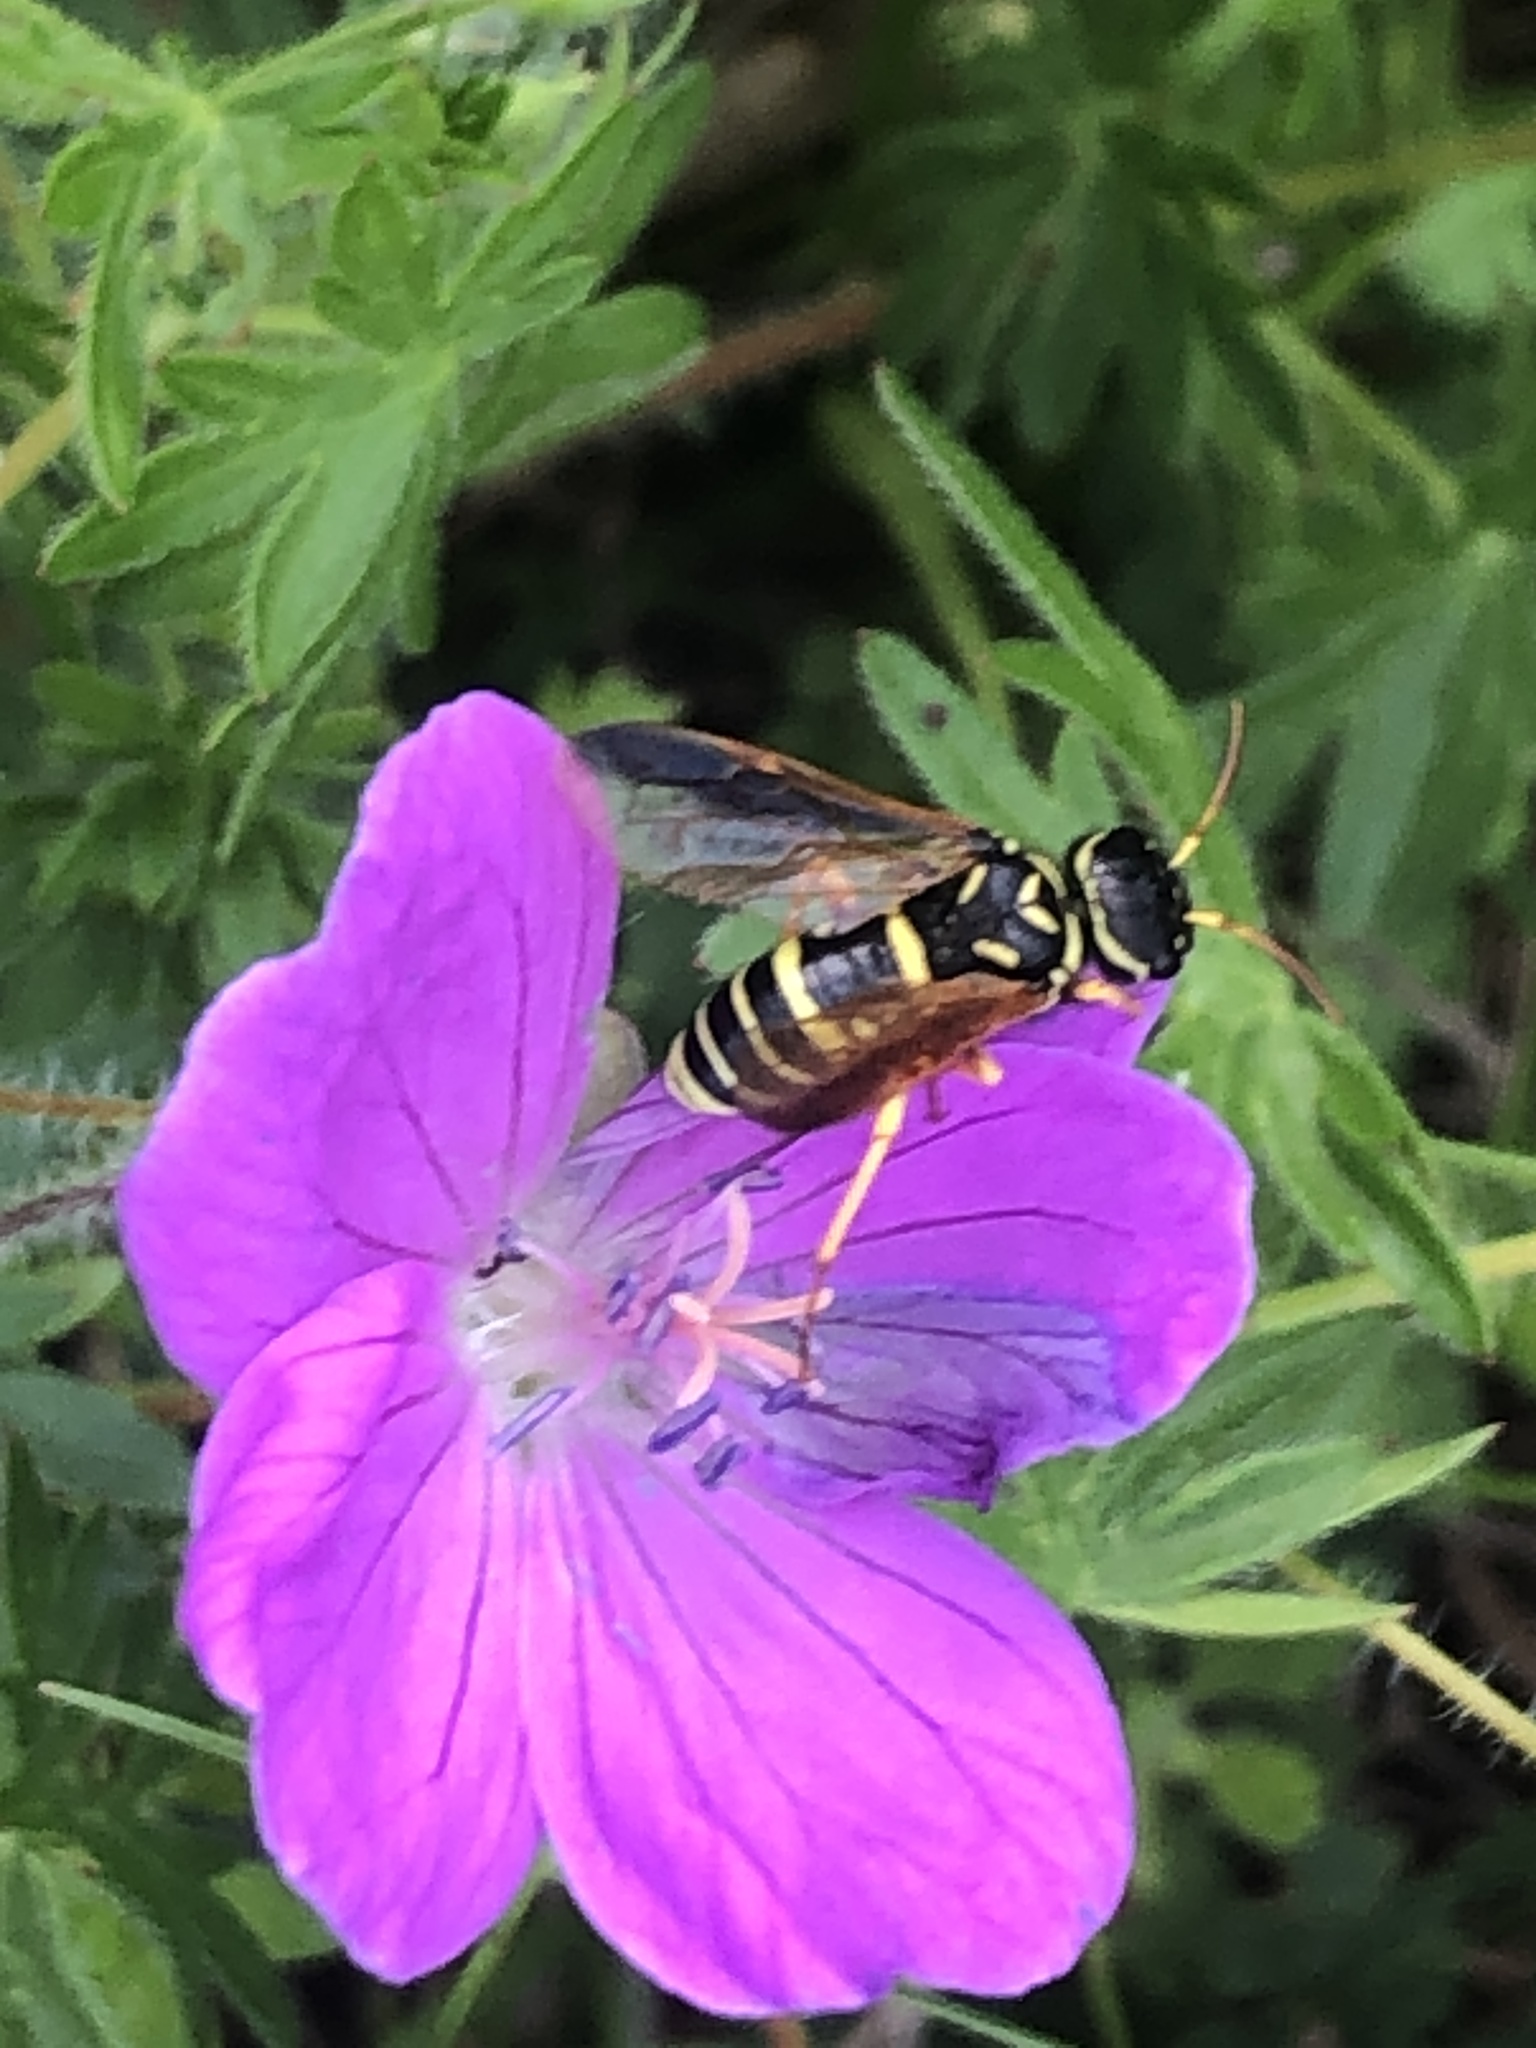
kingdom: Animalia
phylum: Arthropoda
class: Insecta
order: Hymenoptera
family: Megalodontesidae
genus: Megalodontes
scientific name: Megalodontes panzeri
